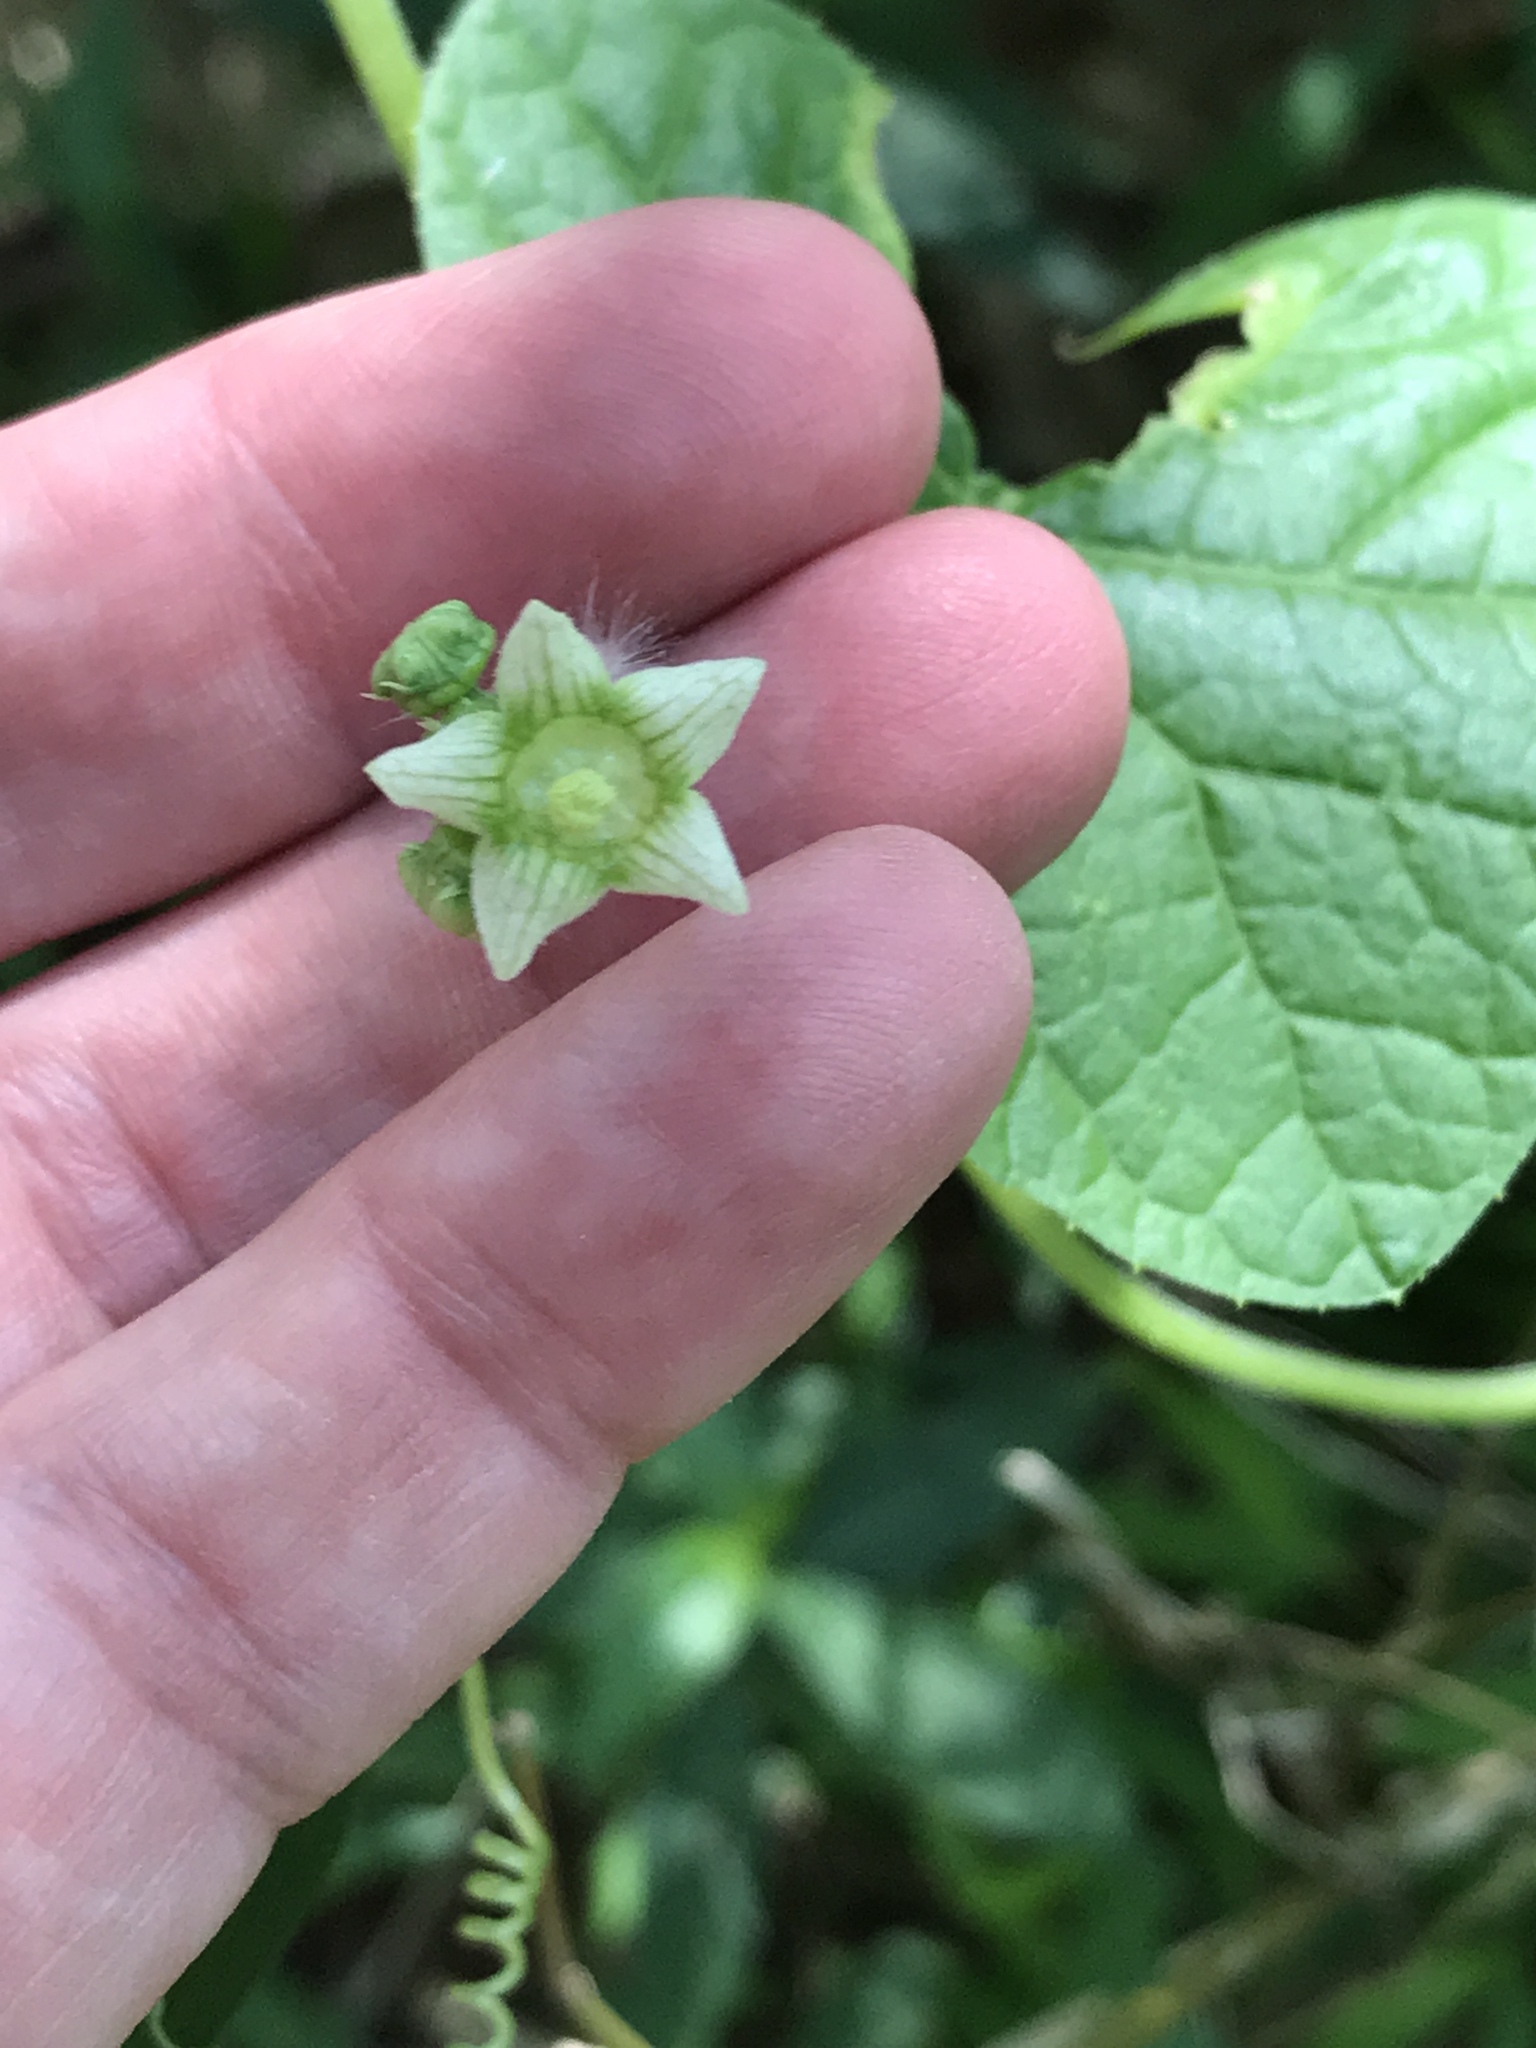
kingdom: Plantae
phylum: Tracheophyta
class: Magnoliopsida
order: Cucurbitales
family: Cucurbitaceae
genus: Sicyos
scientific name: Sicyos angulatus
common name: Angled burr cucumber
